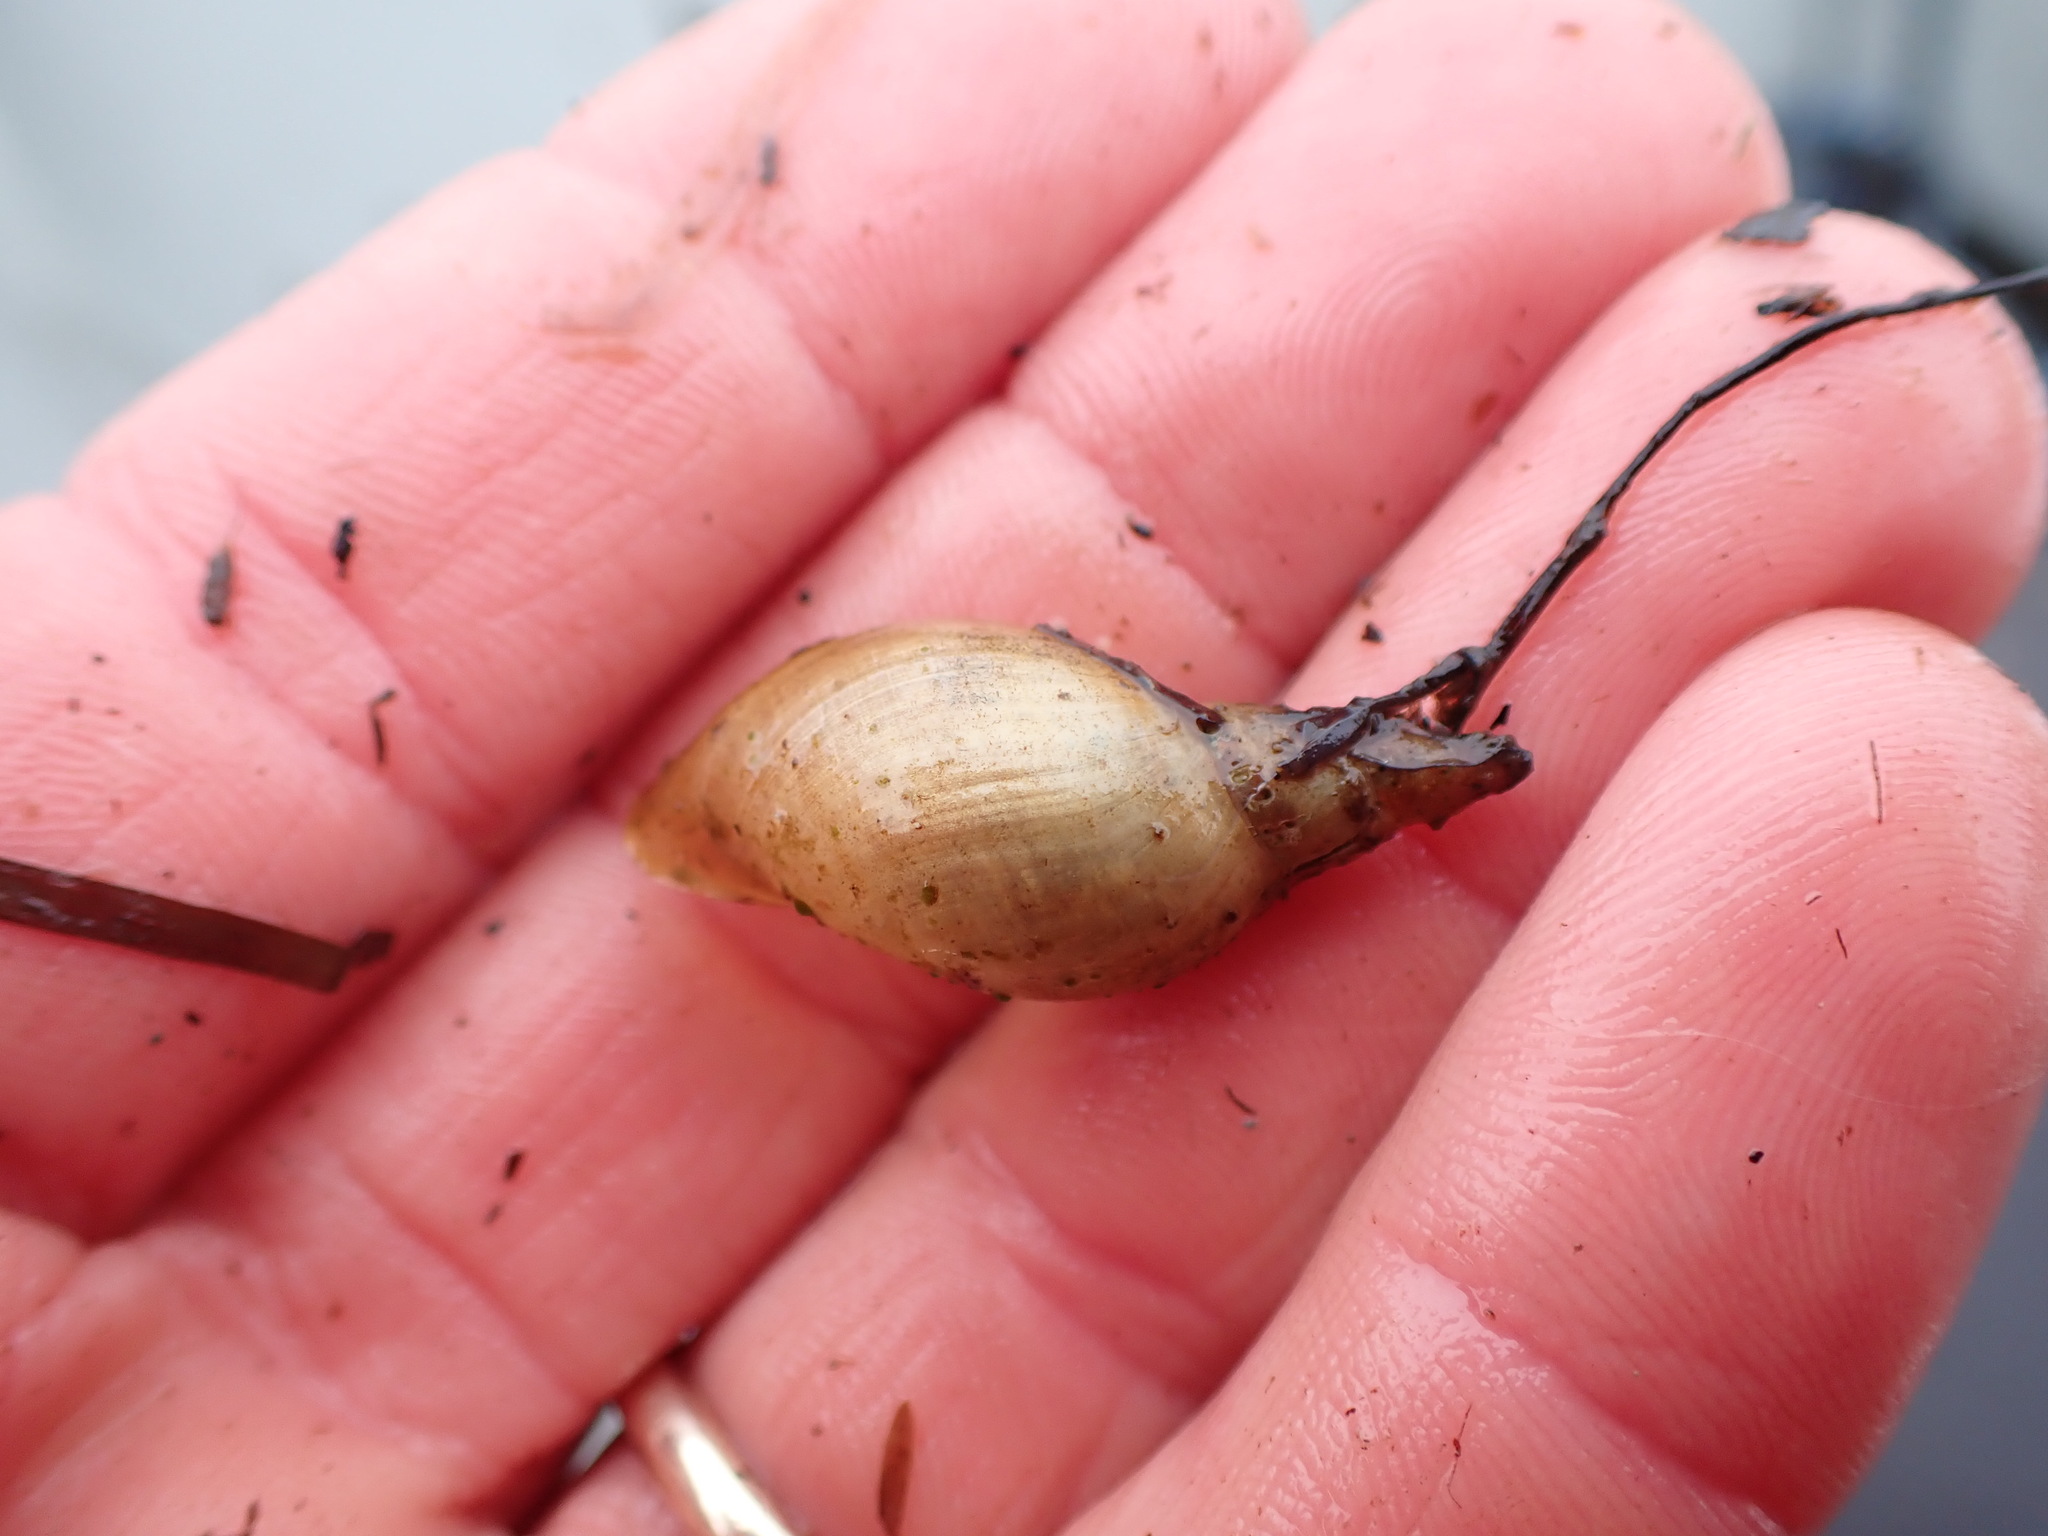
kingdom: Animalia
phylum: Mollusca
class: Gastropoda
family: Lymnaeidae
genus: Lymnaea
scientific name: Lymnaea stagnalis
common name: Great pond snail
